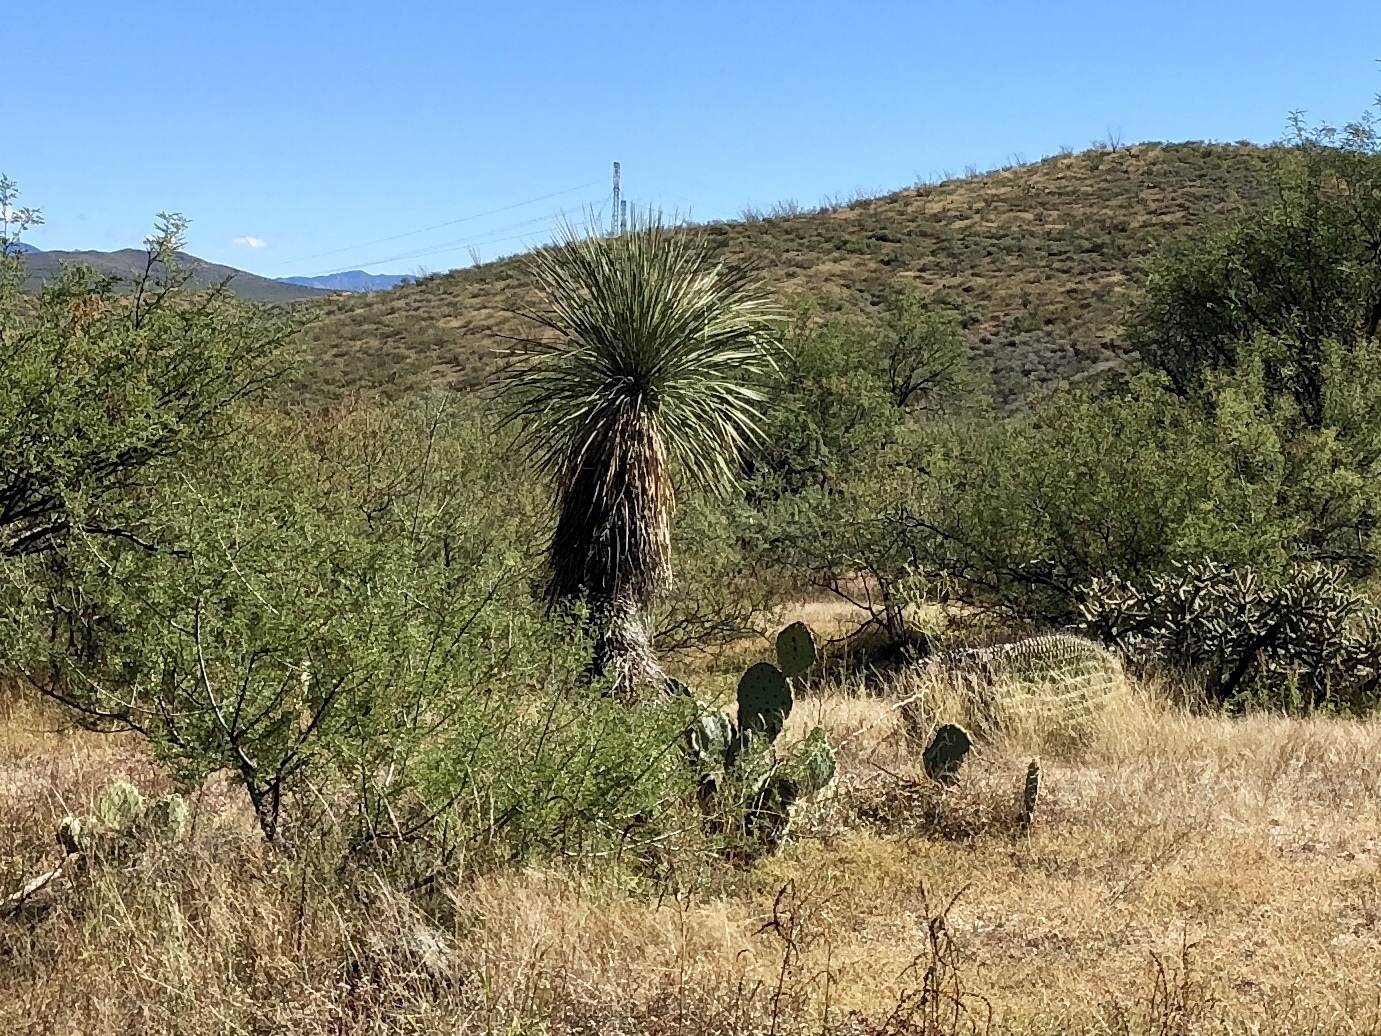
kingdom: Plantae
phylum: Tracheophyta
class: Liliopsida
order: Asparagales
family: Asparagaceae
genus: Yucca
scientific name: Yucca elata
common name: Palmella
